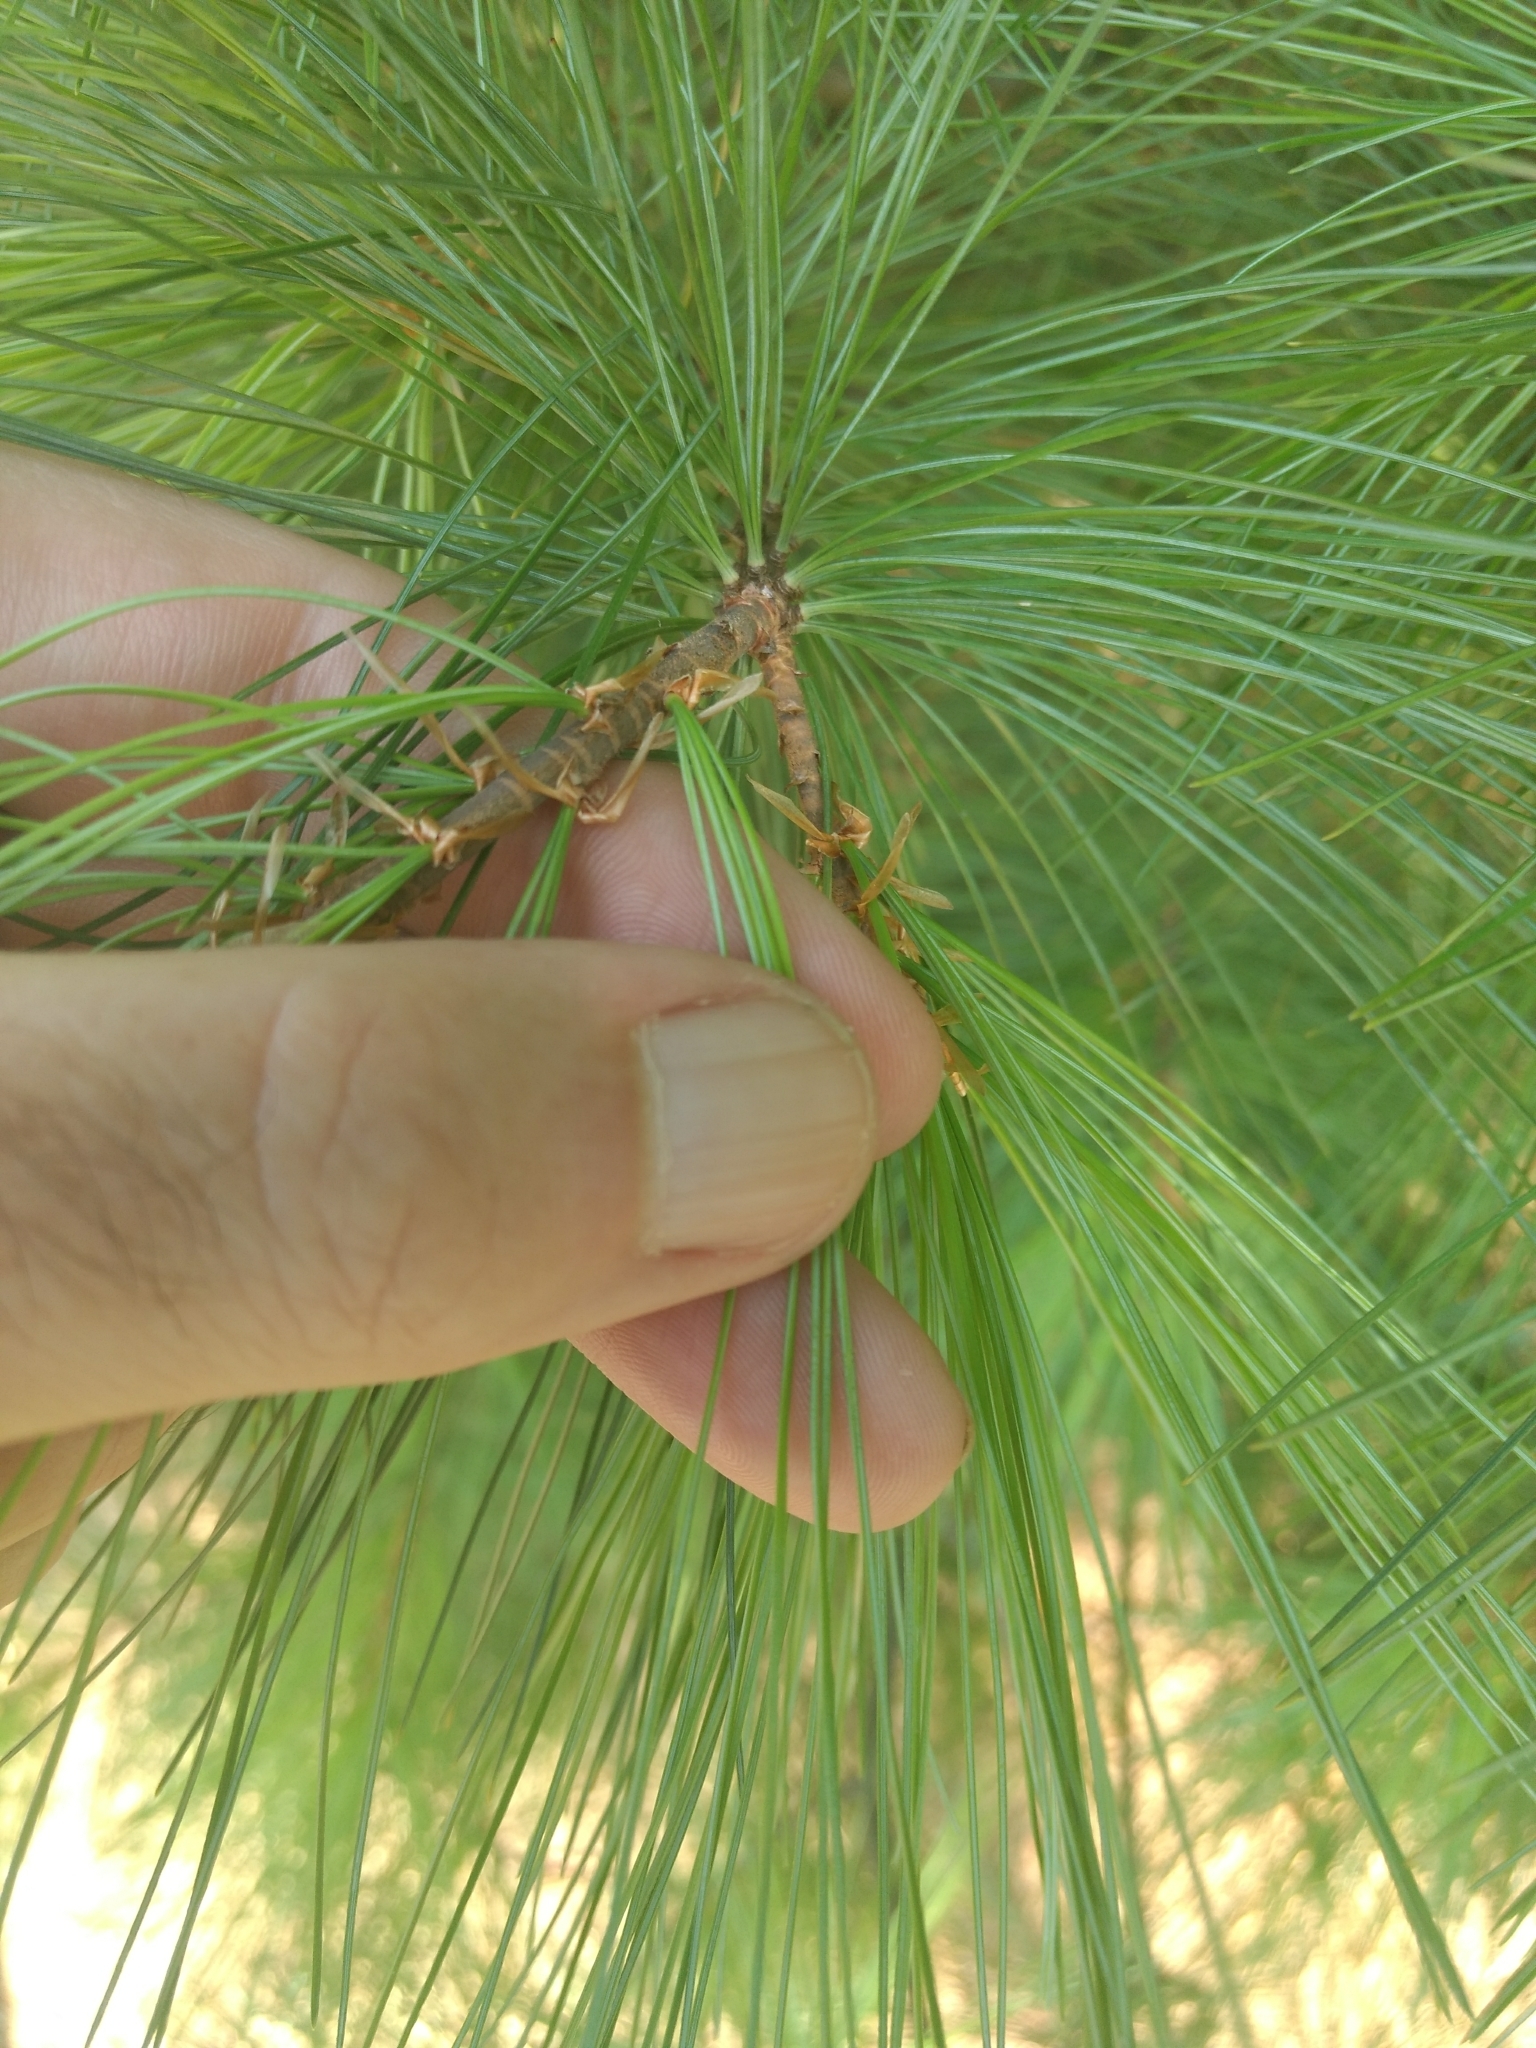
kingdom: Plantae
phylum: Tracheophyta
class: Pinopsida
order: Pinales
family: Pinaceae
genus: Pinus
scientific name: Pinus strobus
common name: Weymouth pine
